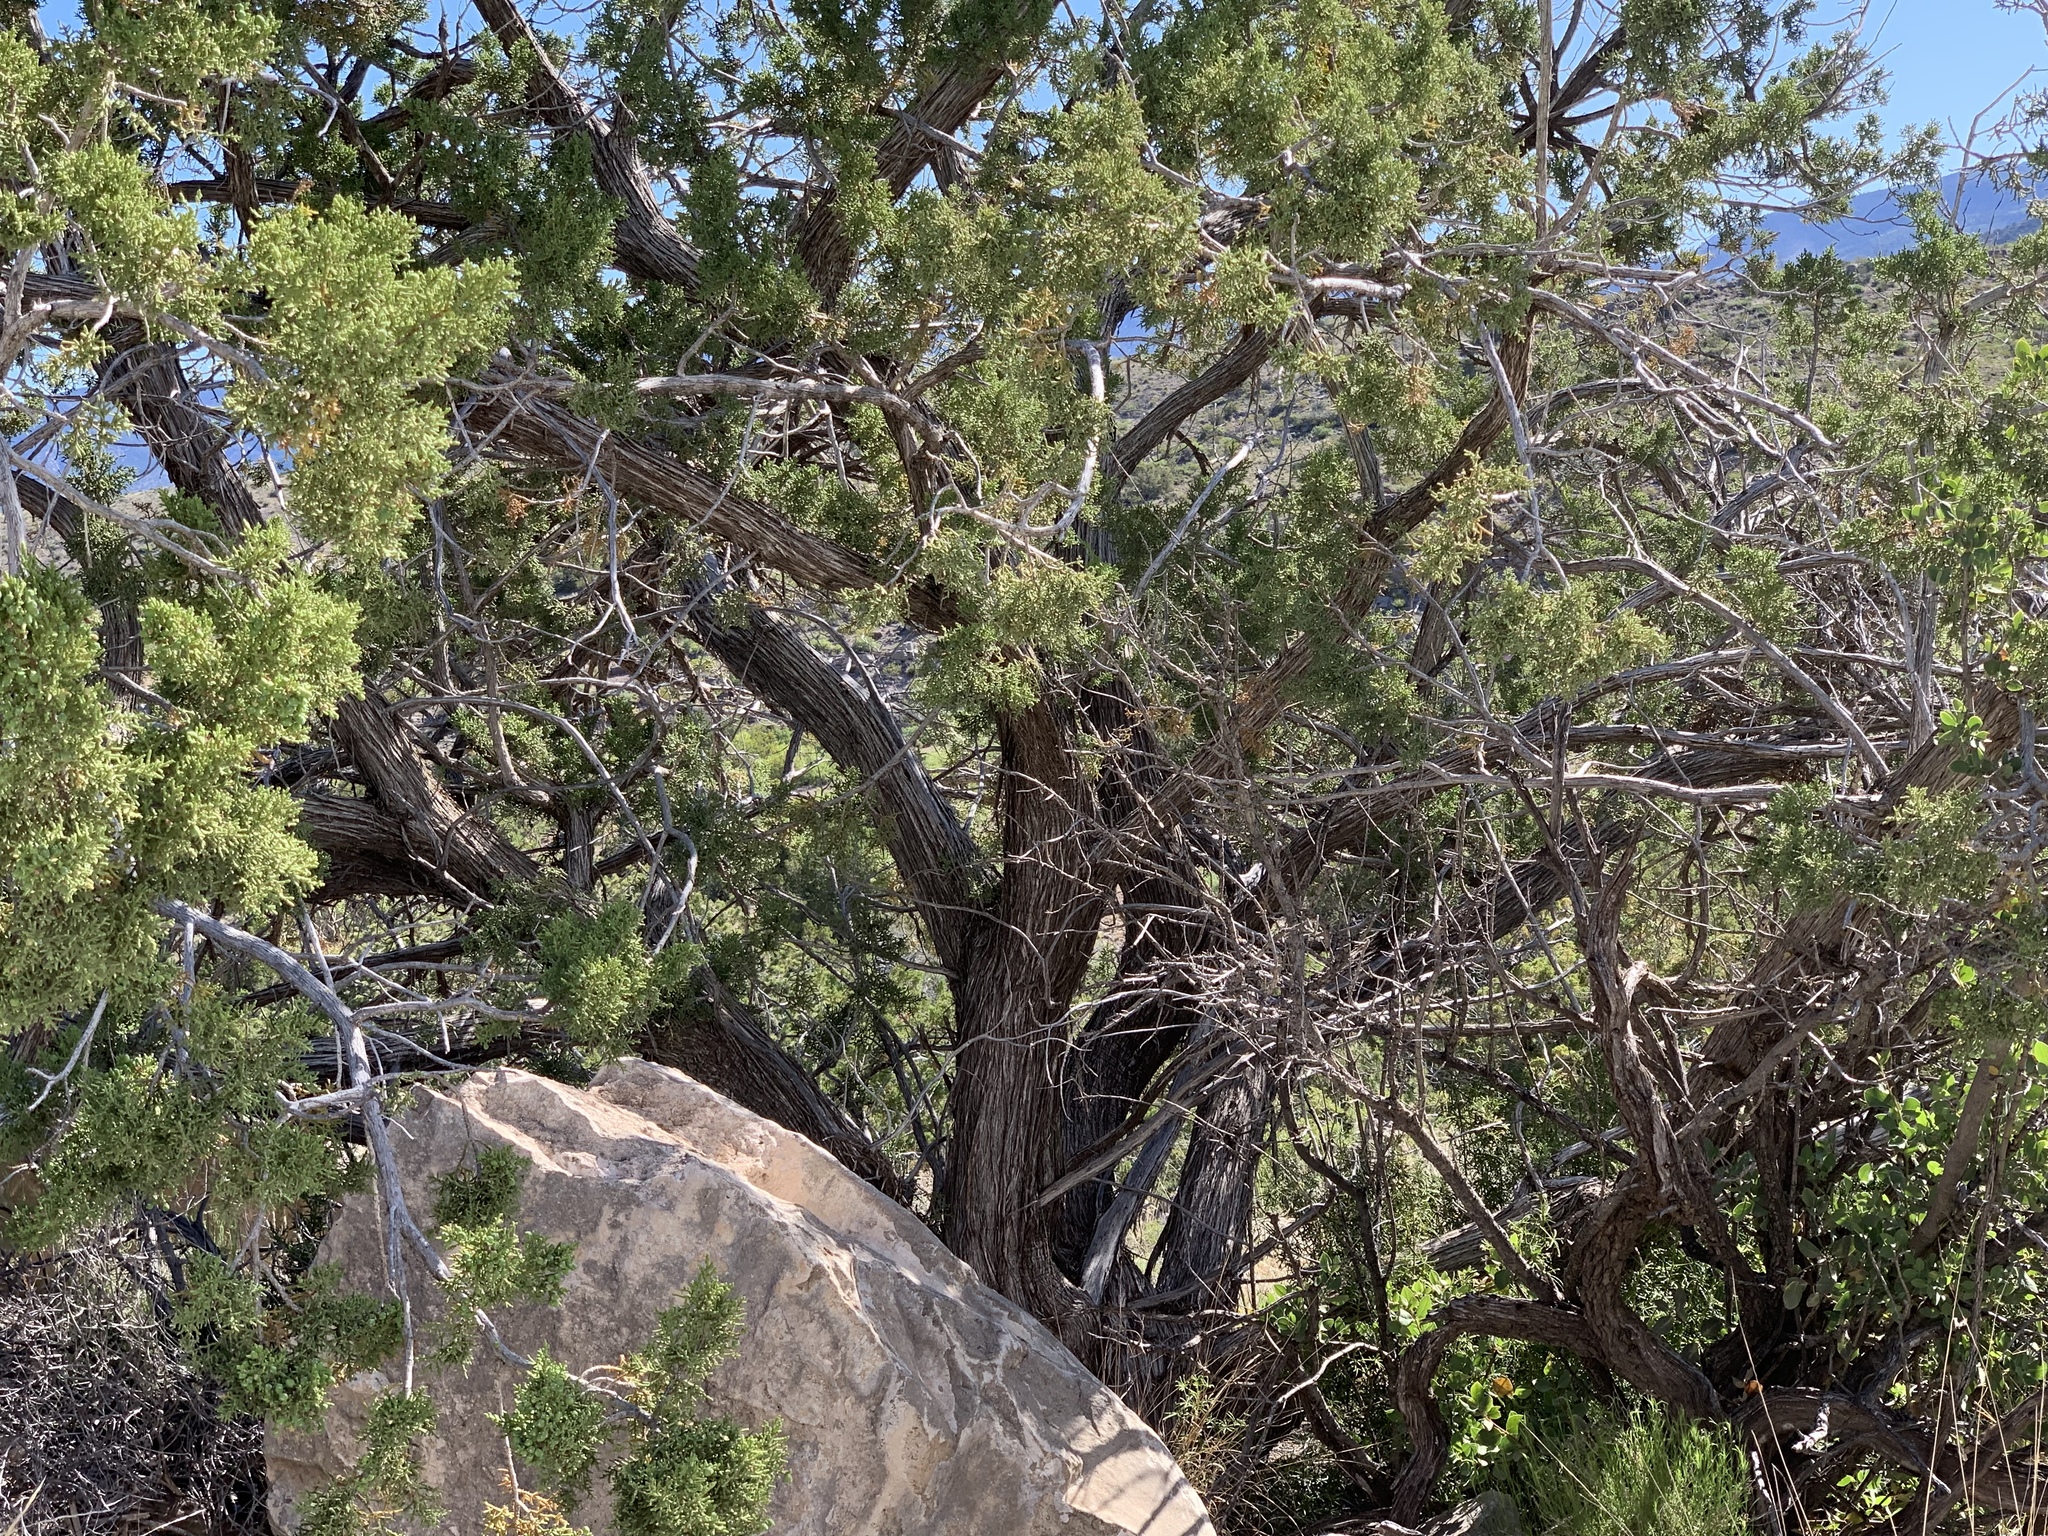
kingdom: Plantae
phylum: Tracheophyta
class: Pinopsida
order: Pinales
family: Cupressaceae
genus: Juniperus
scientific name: Juniperus monosperma
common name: One-seed juniper
